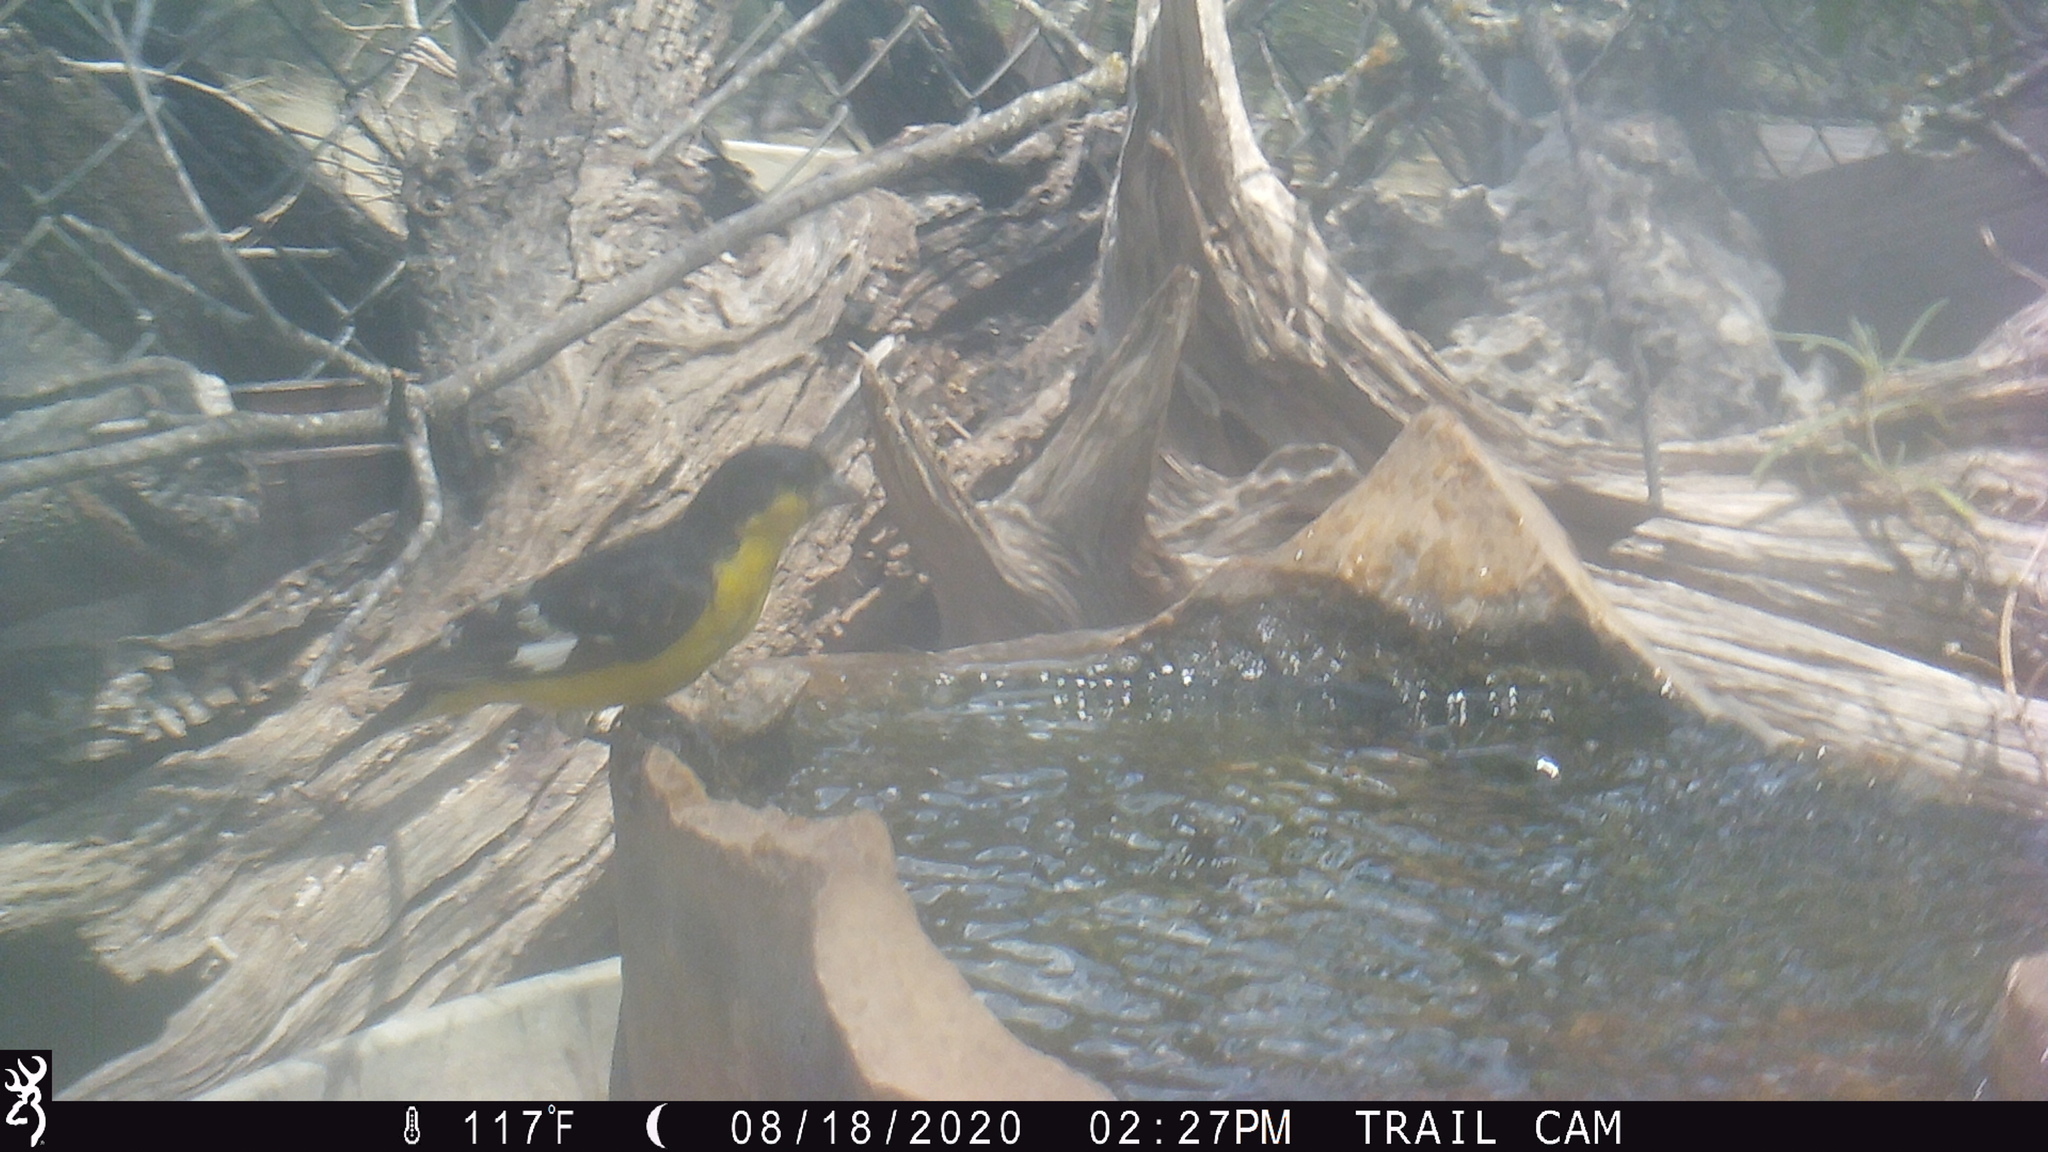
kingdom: Animalia
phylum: Chordata
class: Aves
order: Passeriformes
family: Fringillidae
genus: Spinus
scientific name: Spinus psaltria
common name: Lesser goldfinch
